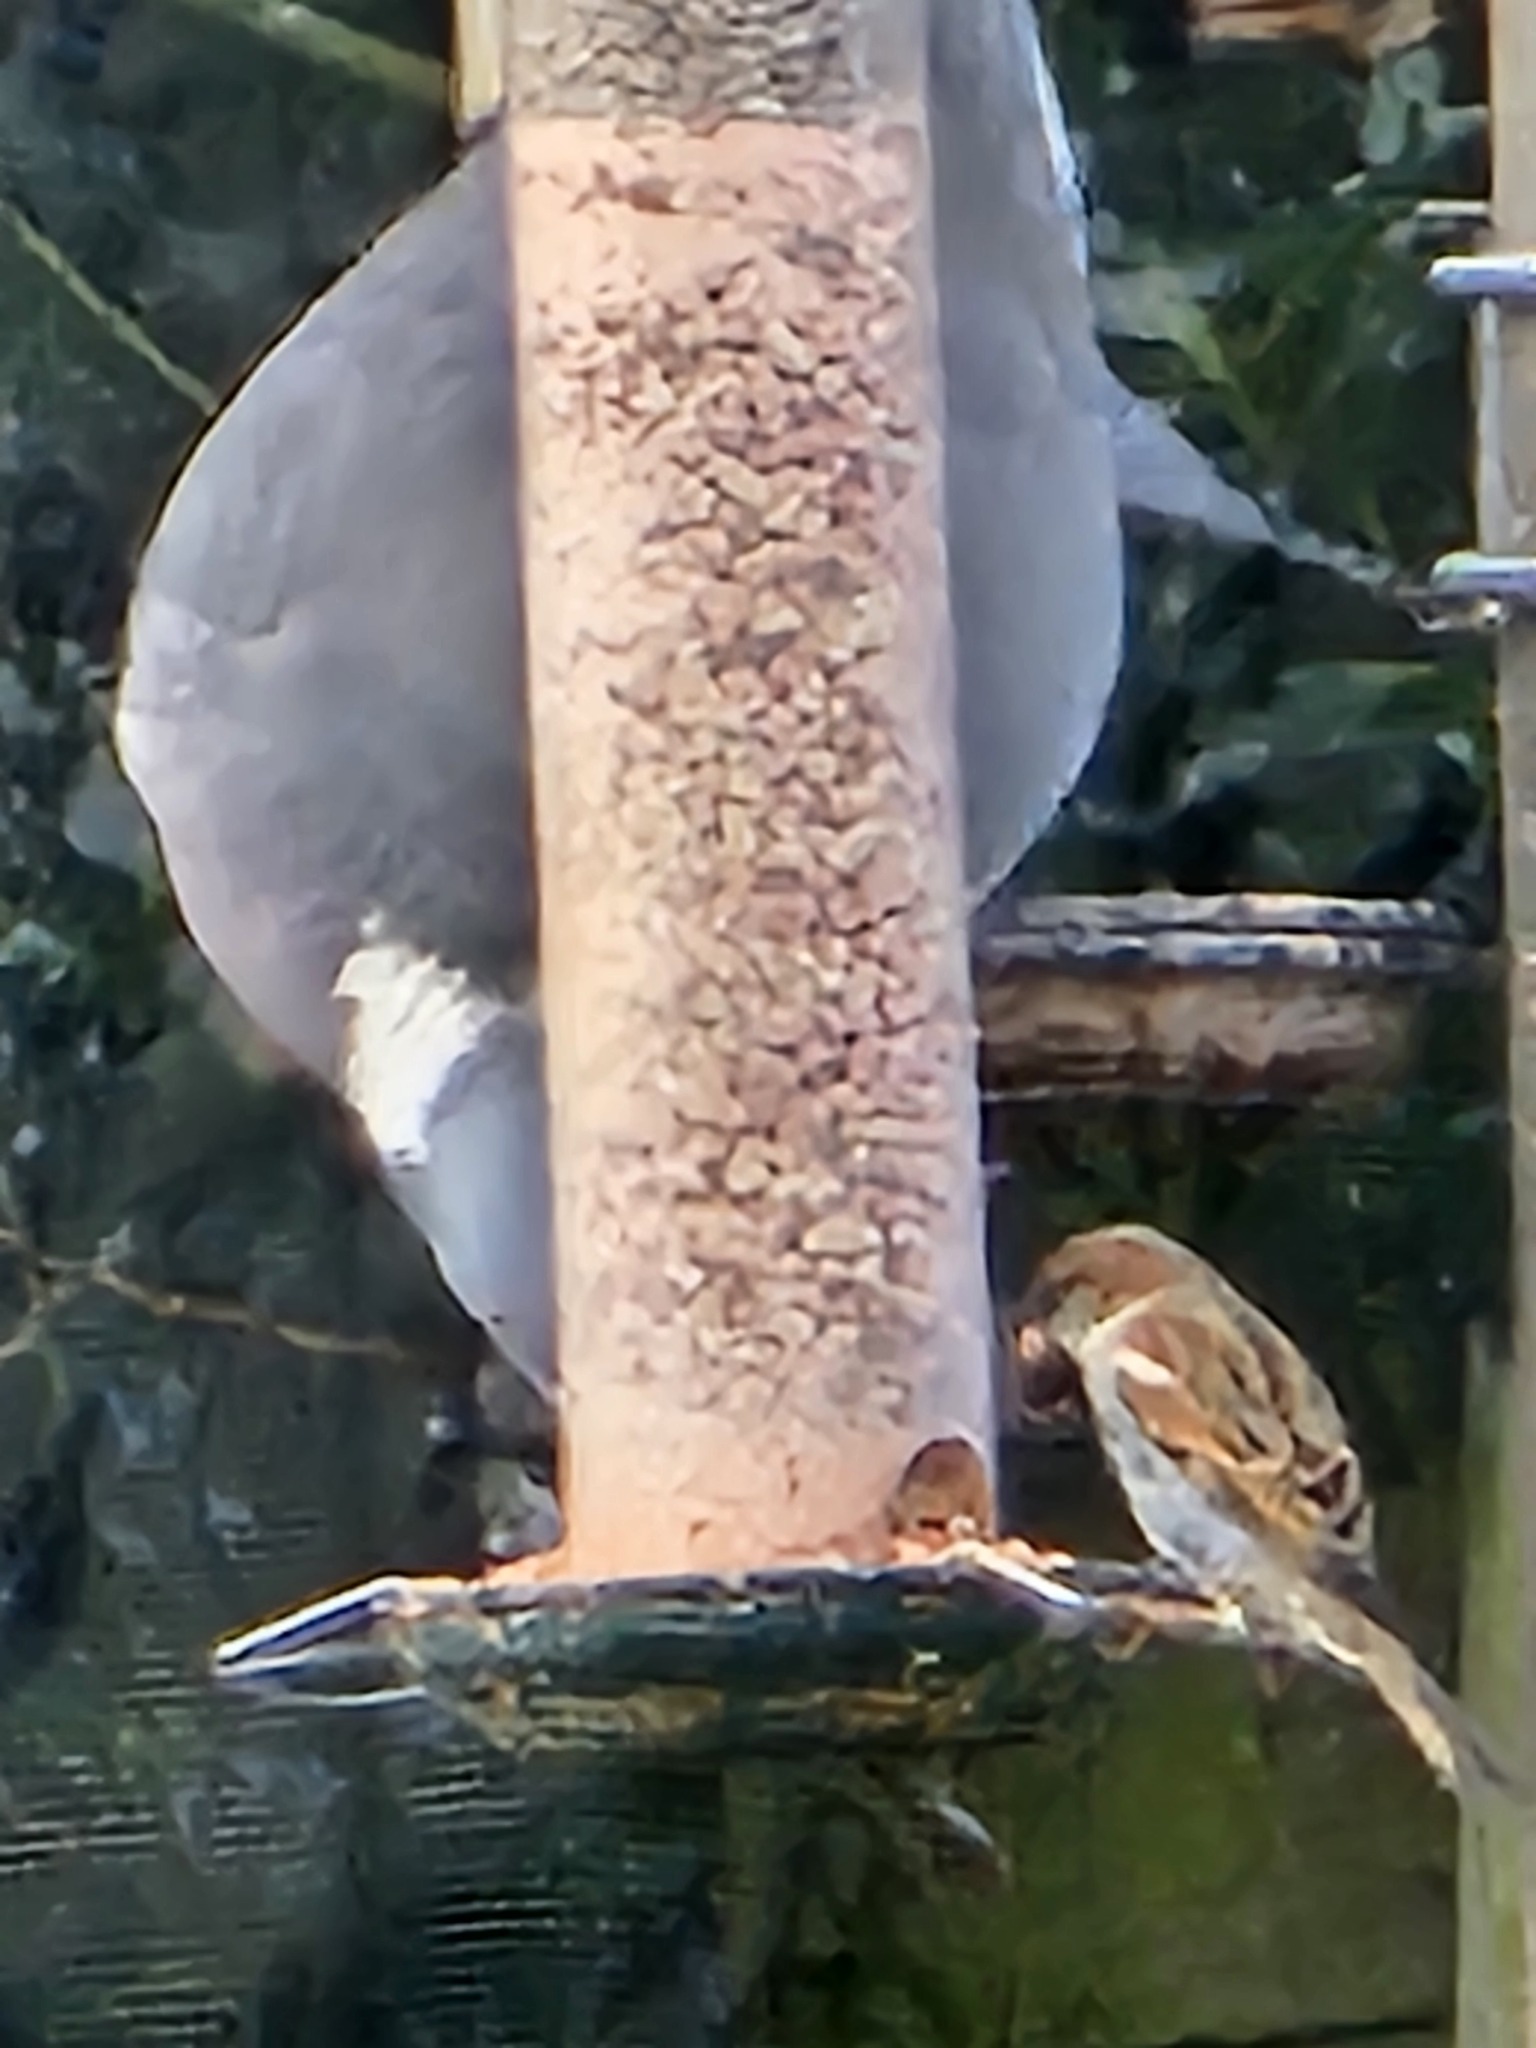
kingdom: Animalia
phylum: Chordata
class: Aves
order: Passeriformes
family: Passeridae
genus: Passer
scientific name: Passer domesticus
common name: House sparrow
